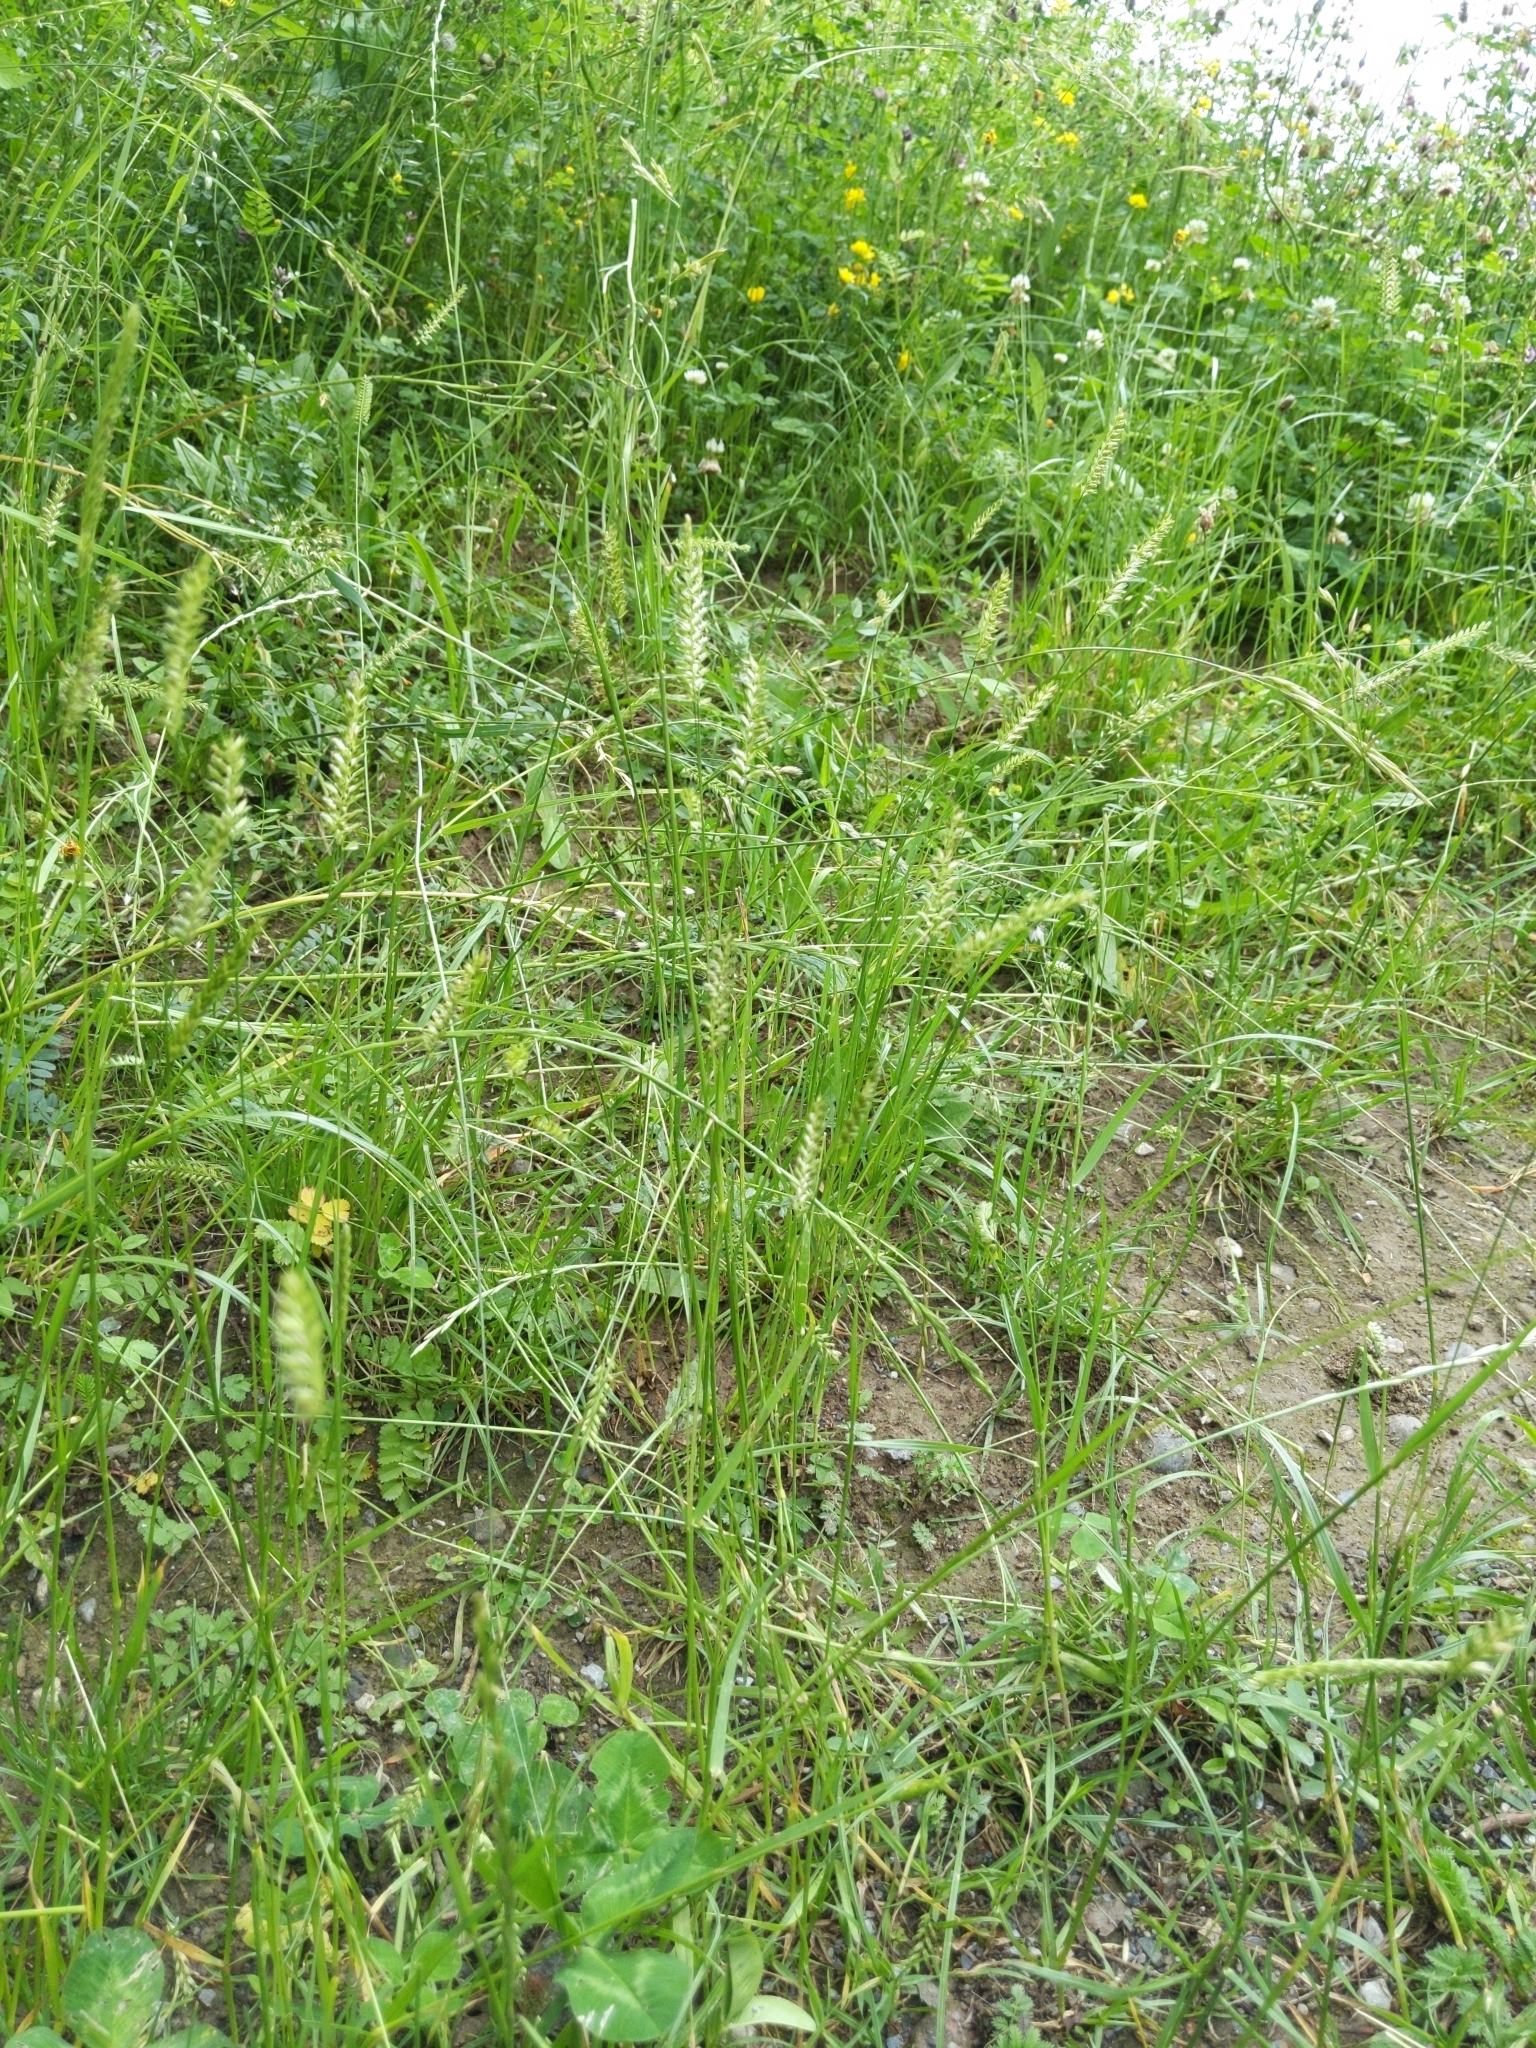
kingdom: Plantae
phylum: Tracheophyta
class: Liliopsida
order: Poales
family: Poaceae
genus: Cynosurus
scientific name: Cynosurus cristatus
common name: Crested dog's-tail
